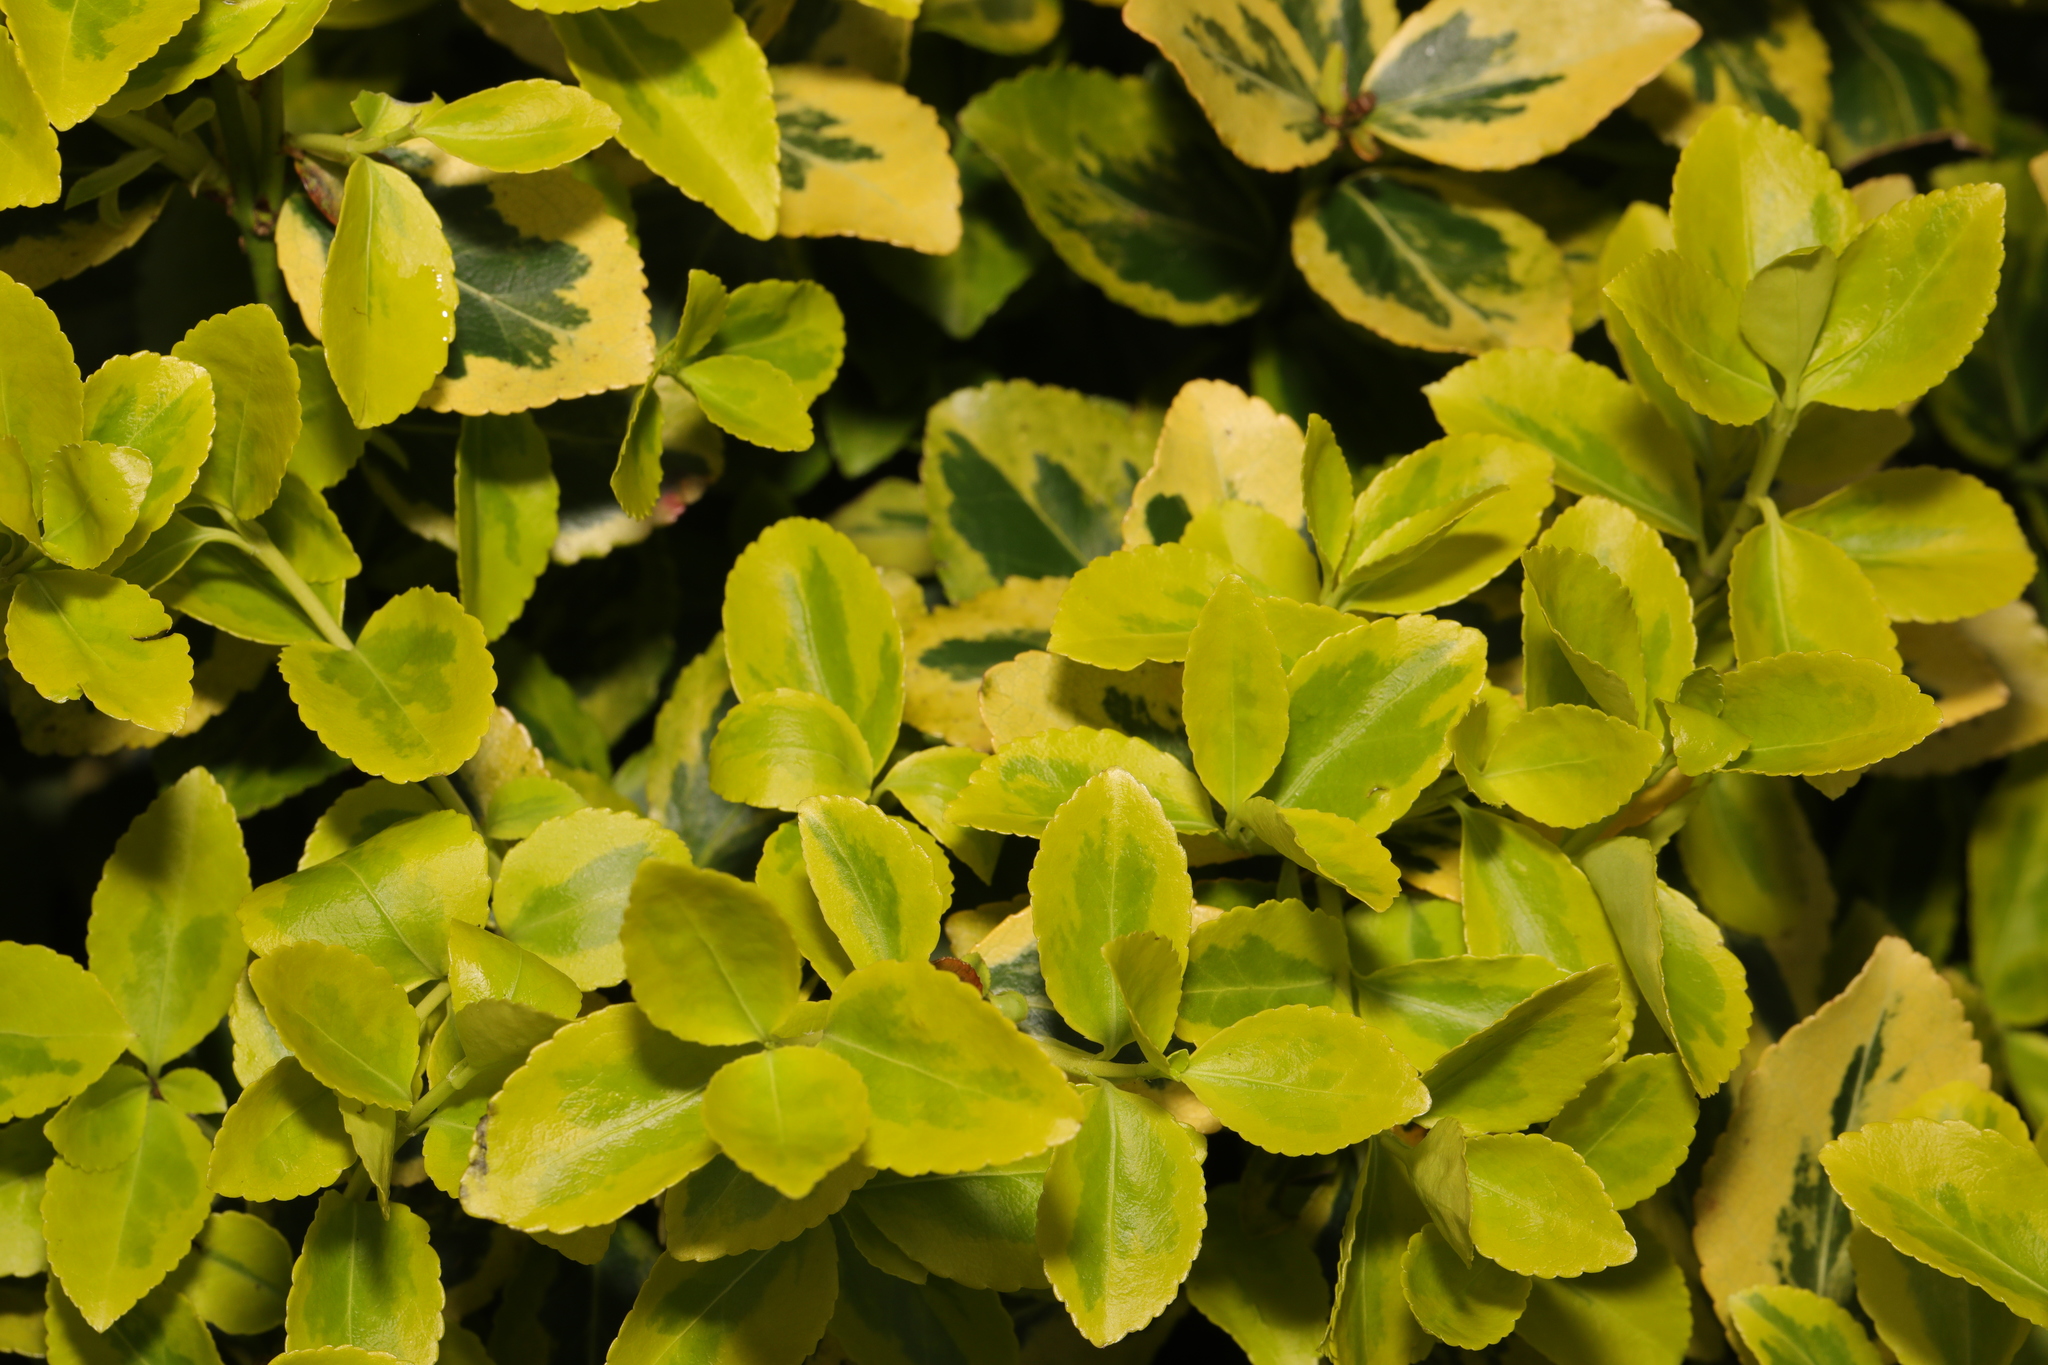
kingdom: Plantae
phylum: Tracheophyta
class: Magnoliopsida
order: Celastrales
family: Celastraceae
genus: Euonymus
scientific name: Euonymus japonicus
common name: Japanese spindletree
